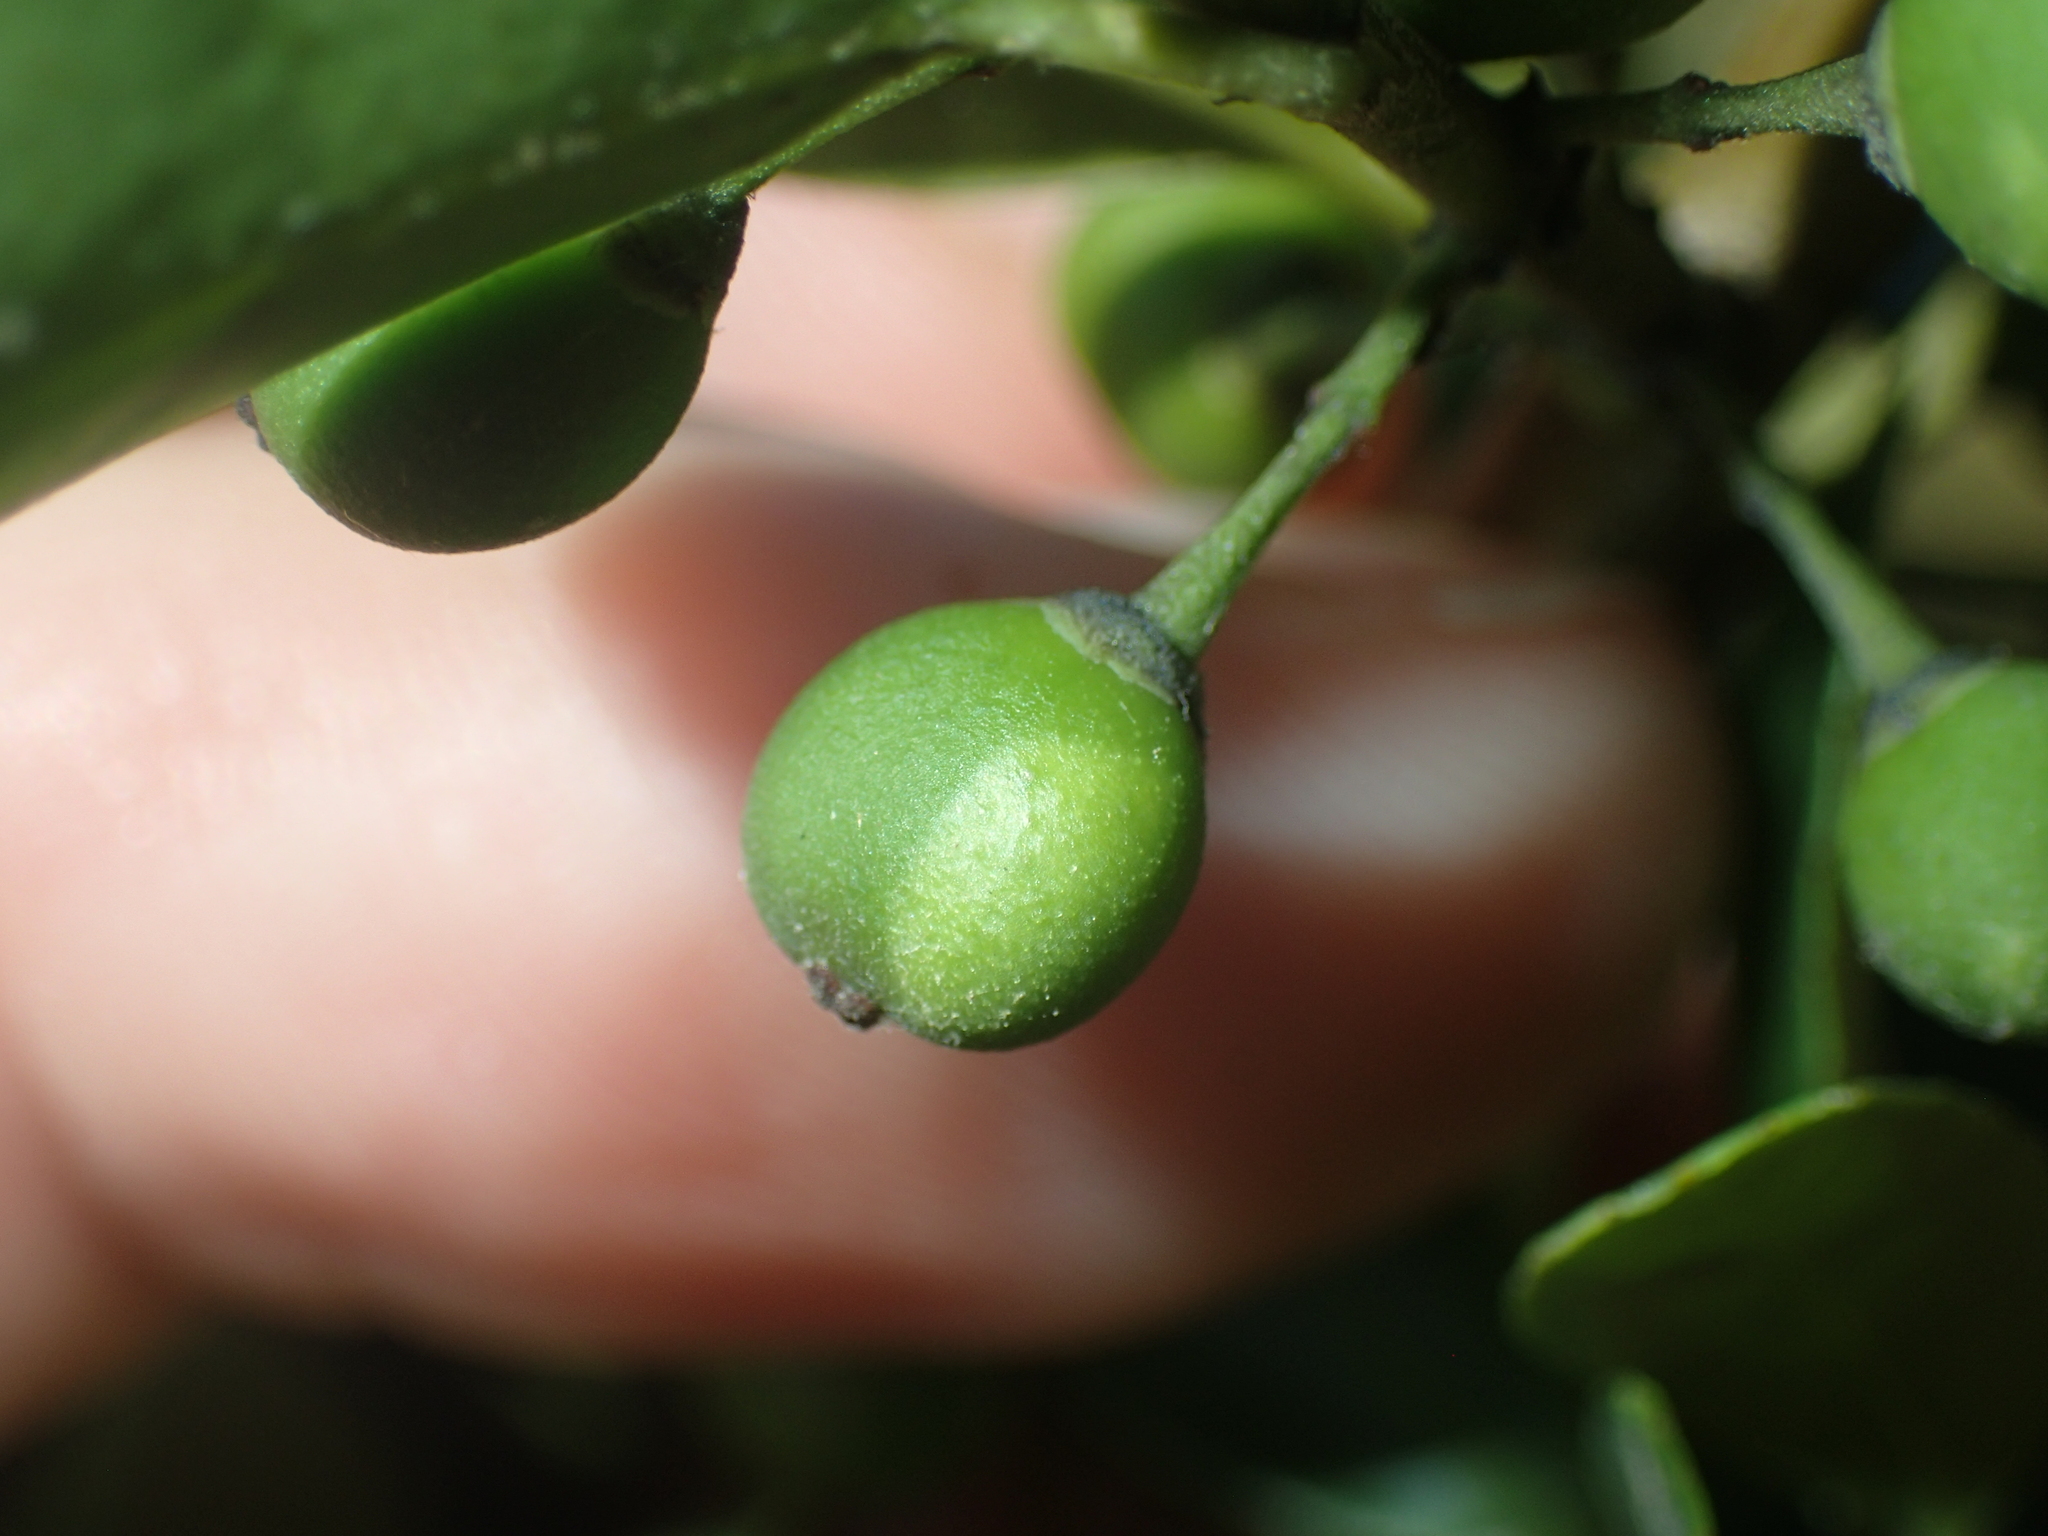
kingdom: Plantae
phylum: Tracheophyta
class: Magnoliopsida
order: Aquifoliales
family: Aquifoliaceae
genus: Ilex
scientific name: Ilex crenata
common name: Japanese holly
